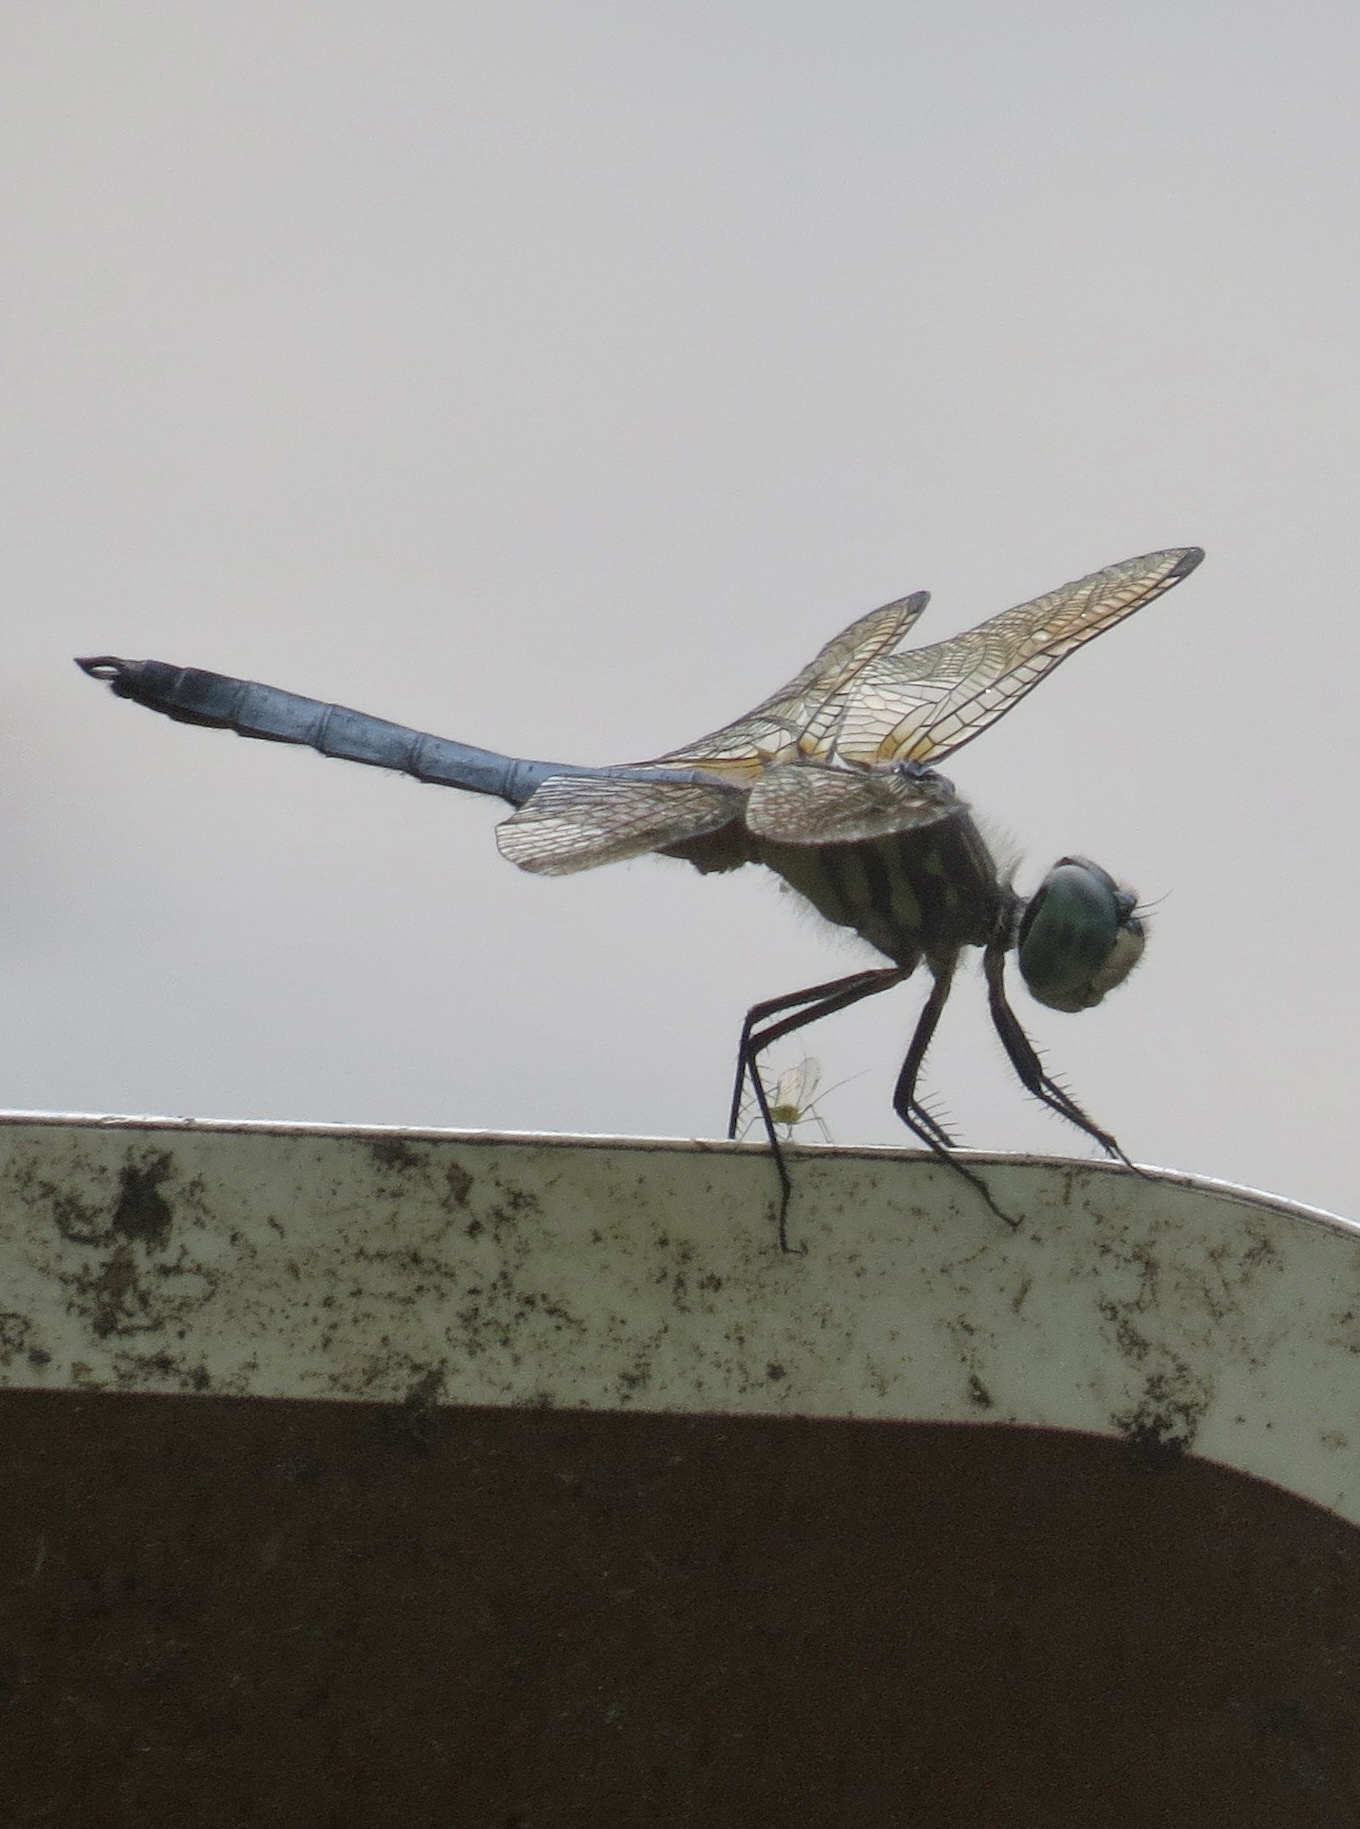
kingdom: Animalia
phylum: Arthropoda
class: Insecta
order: Odonata
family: Libellulidae
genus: Pachydiplax
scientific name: Pachydiplax longipennis
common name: Blue dasher
